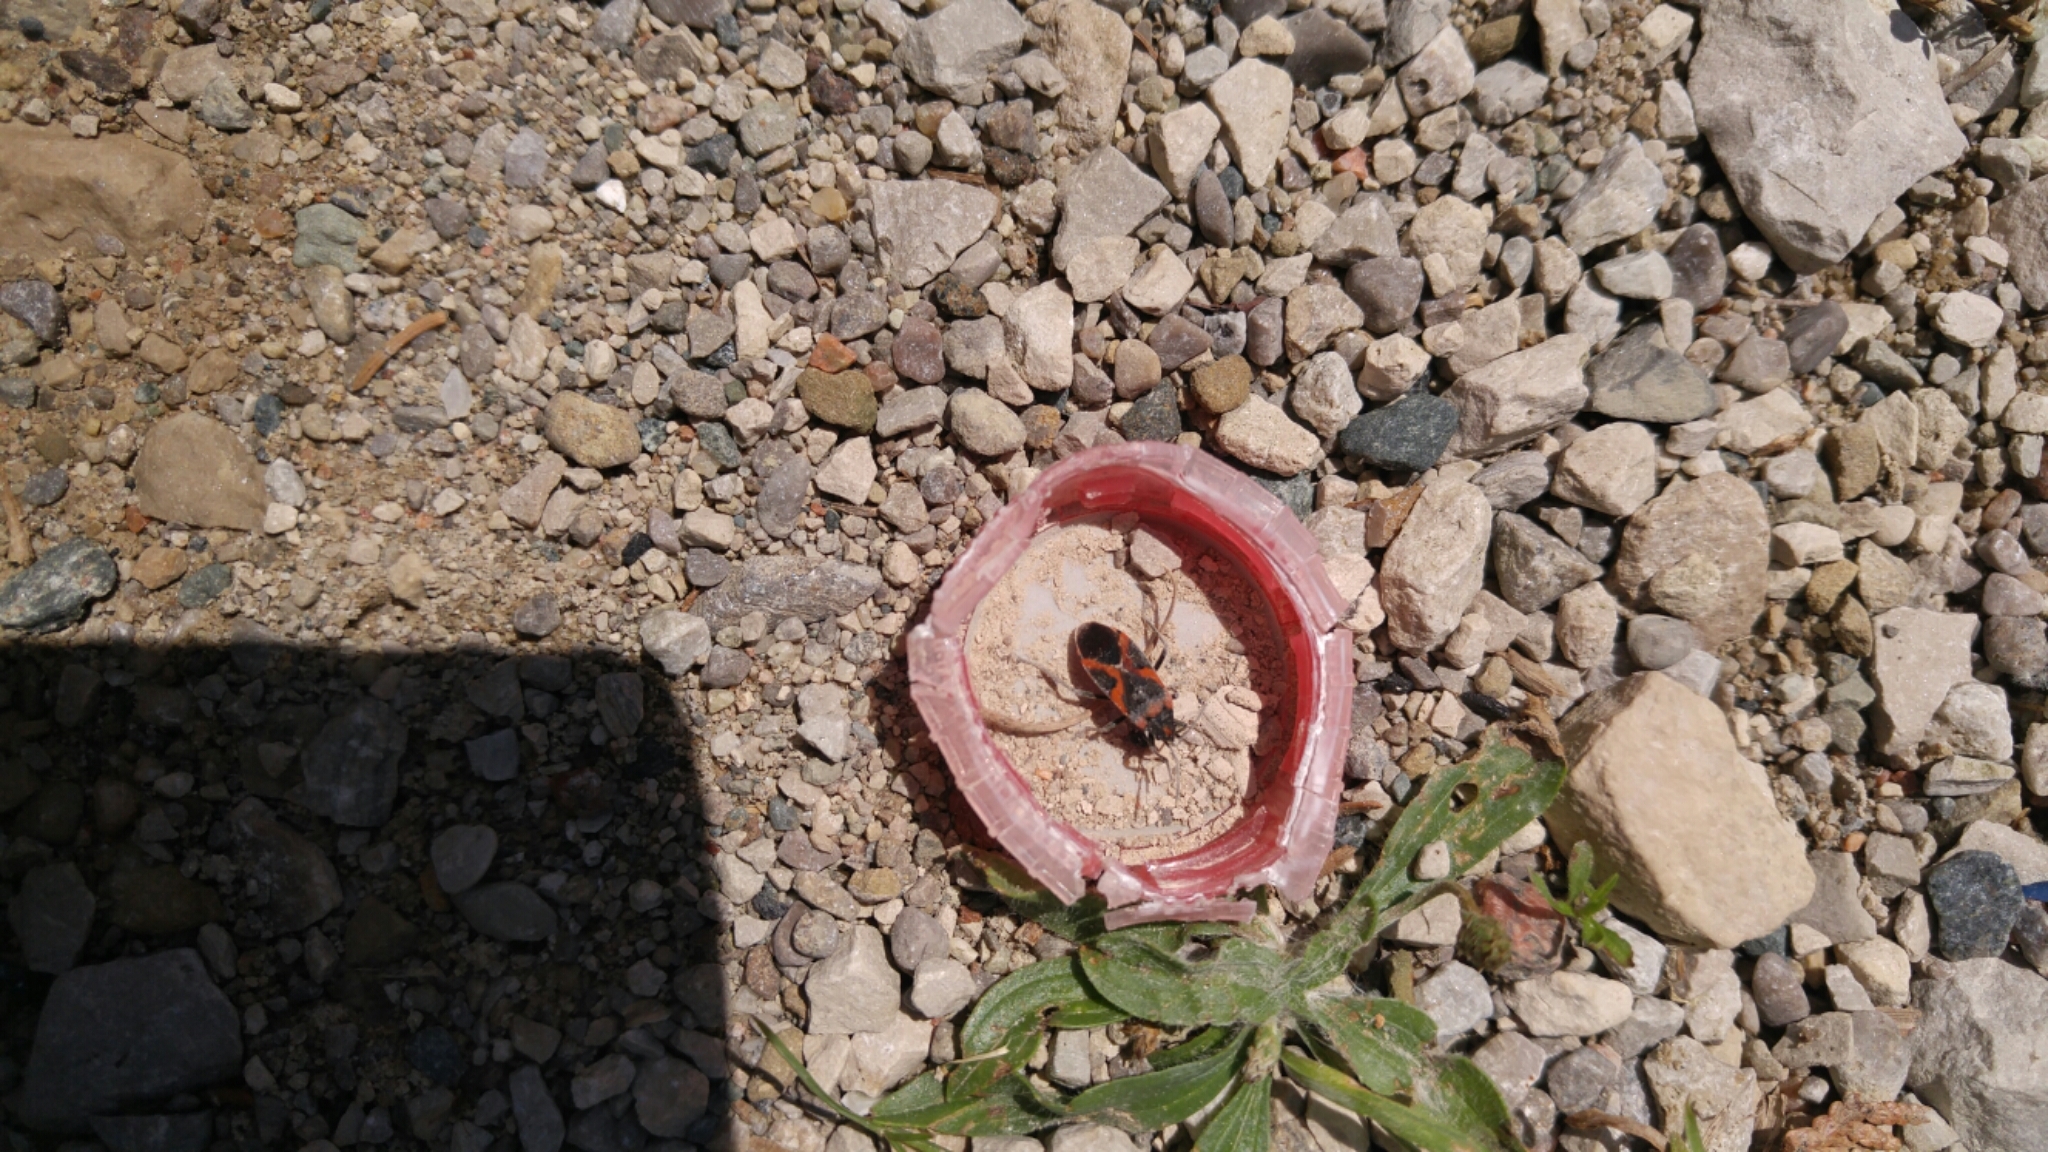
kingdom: Animalia
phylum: Arthropoda
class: Insecta
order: Hemiptera
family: Lygaeidae
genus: Lygaeus
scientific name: Lygaeus kalmii
